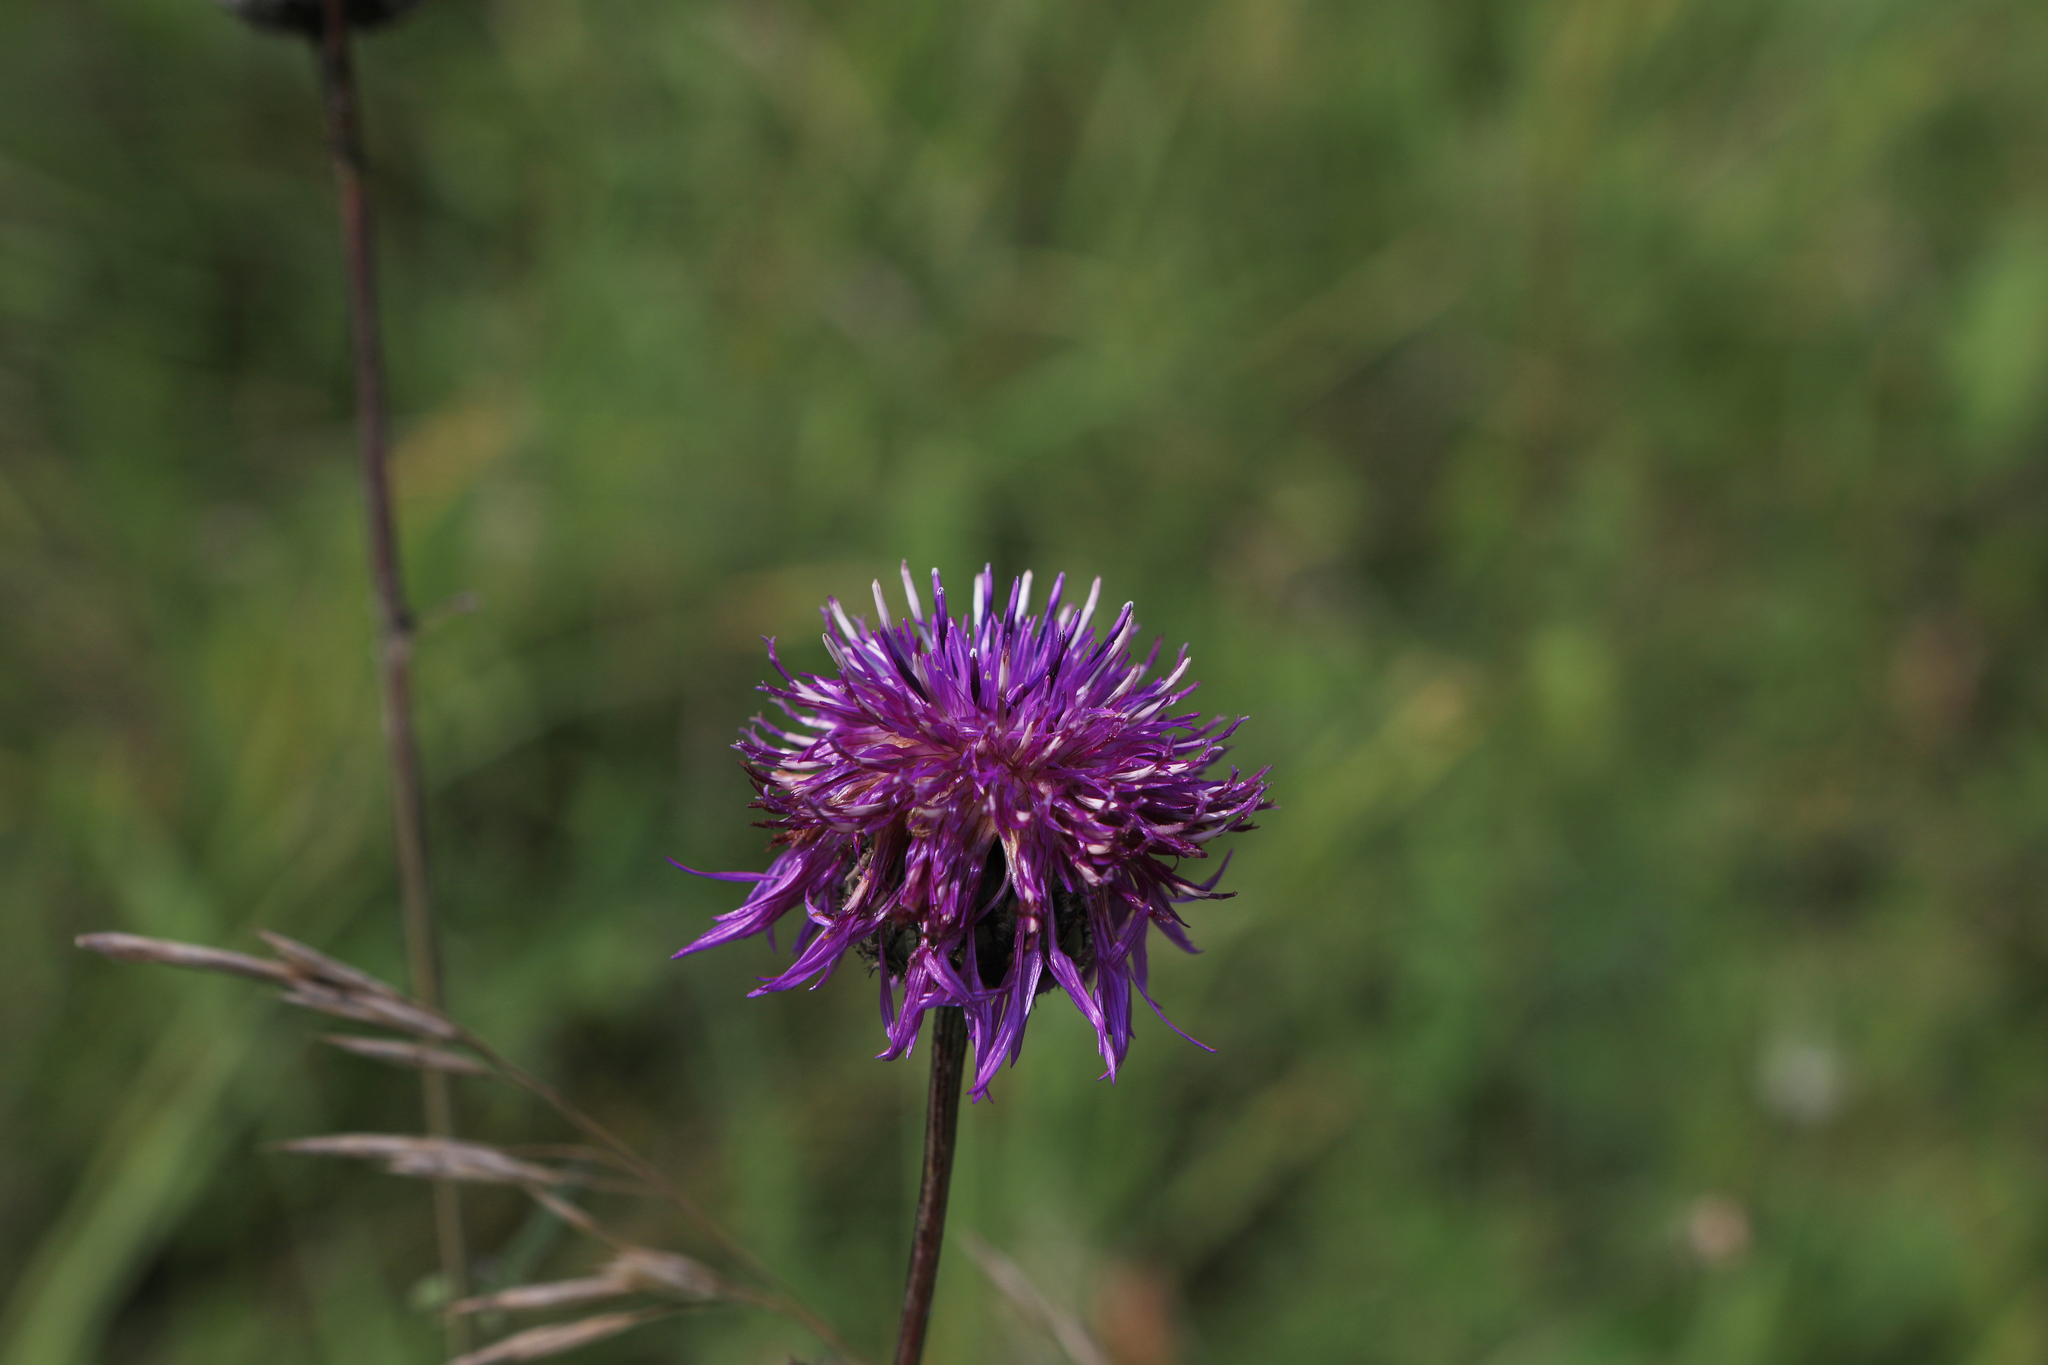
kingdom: Plantae
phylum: Tracheophyta
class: Magnoliopsida
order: Asterales
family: Asteraceae
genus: Centaurea
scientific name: Centaurea scabiosa
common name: Greater knapweed
